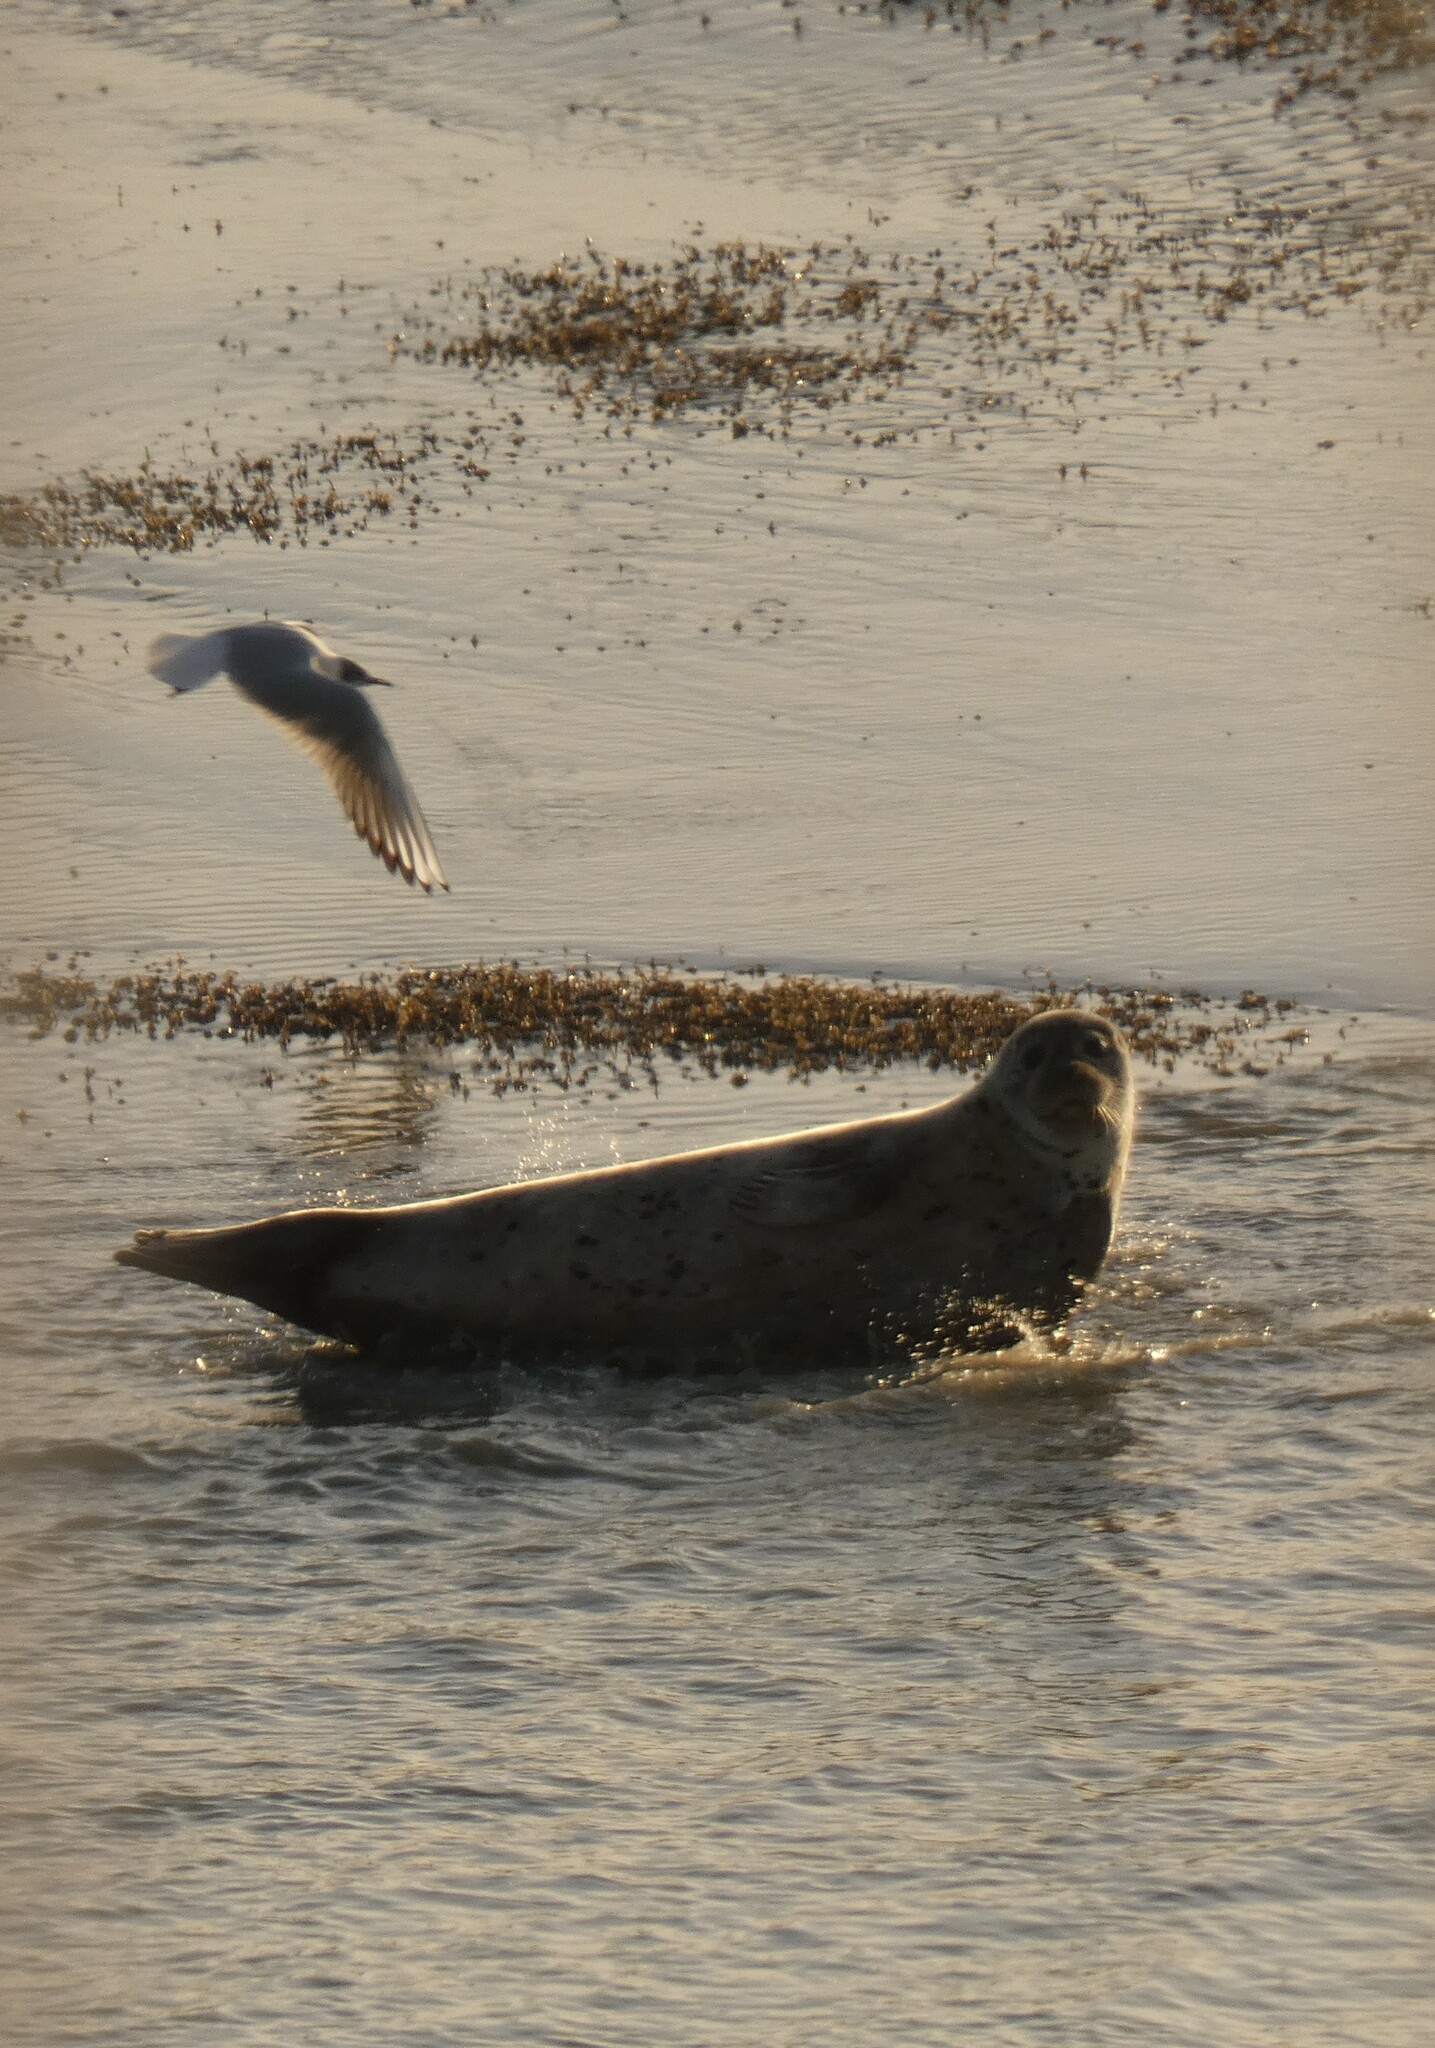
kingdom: Animalia
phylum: Chordata
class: Mammalia
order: Carnivora
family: Phocidae
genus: Phoca
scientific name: Phoca vitulina
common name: Harbor seal
